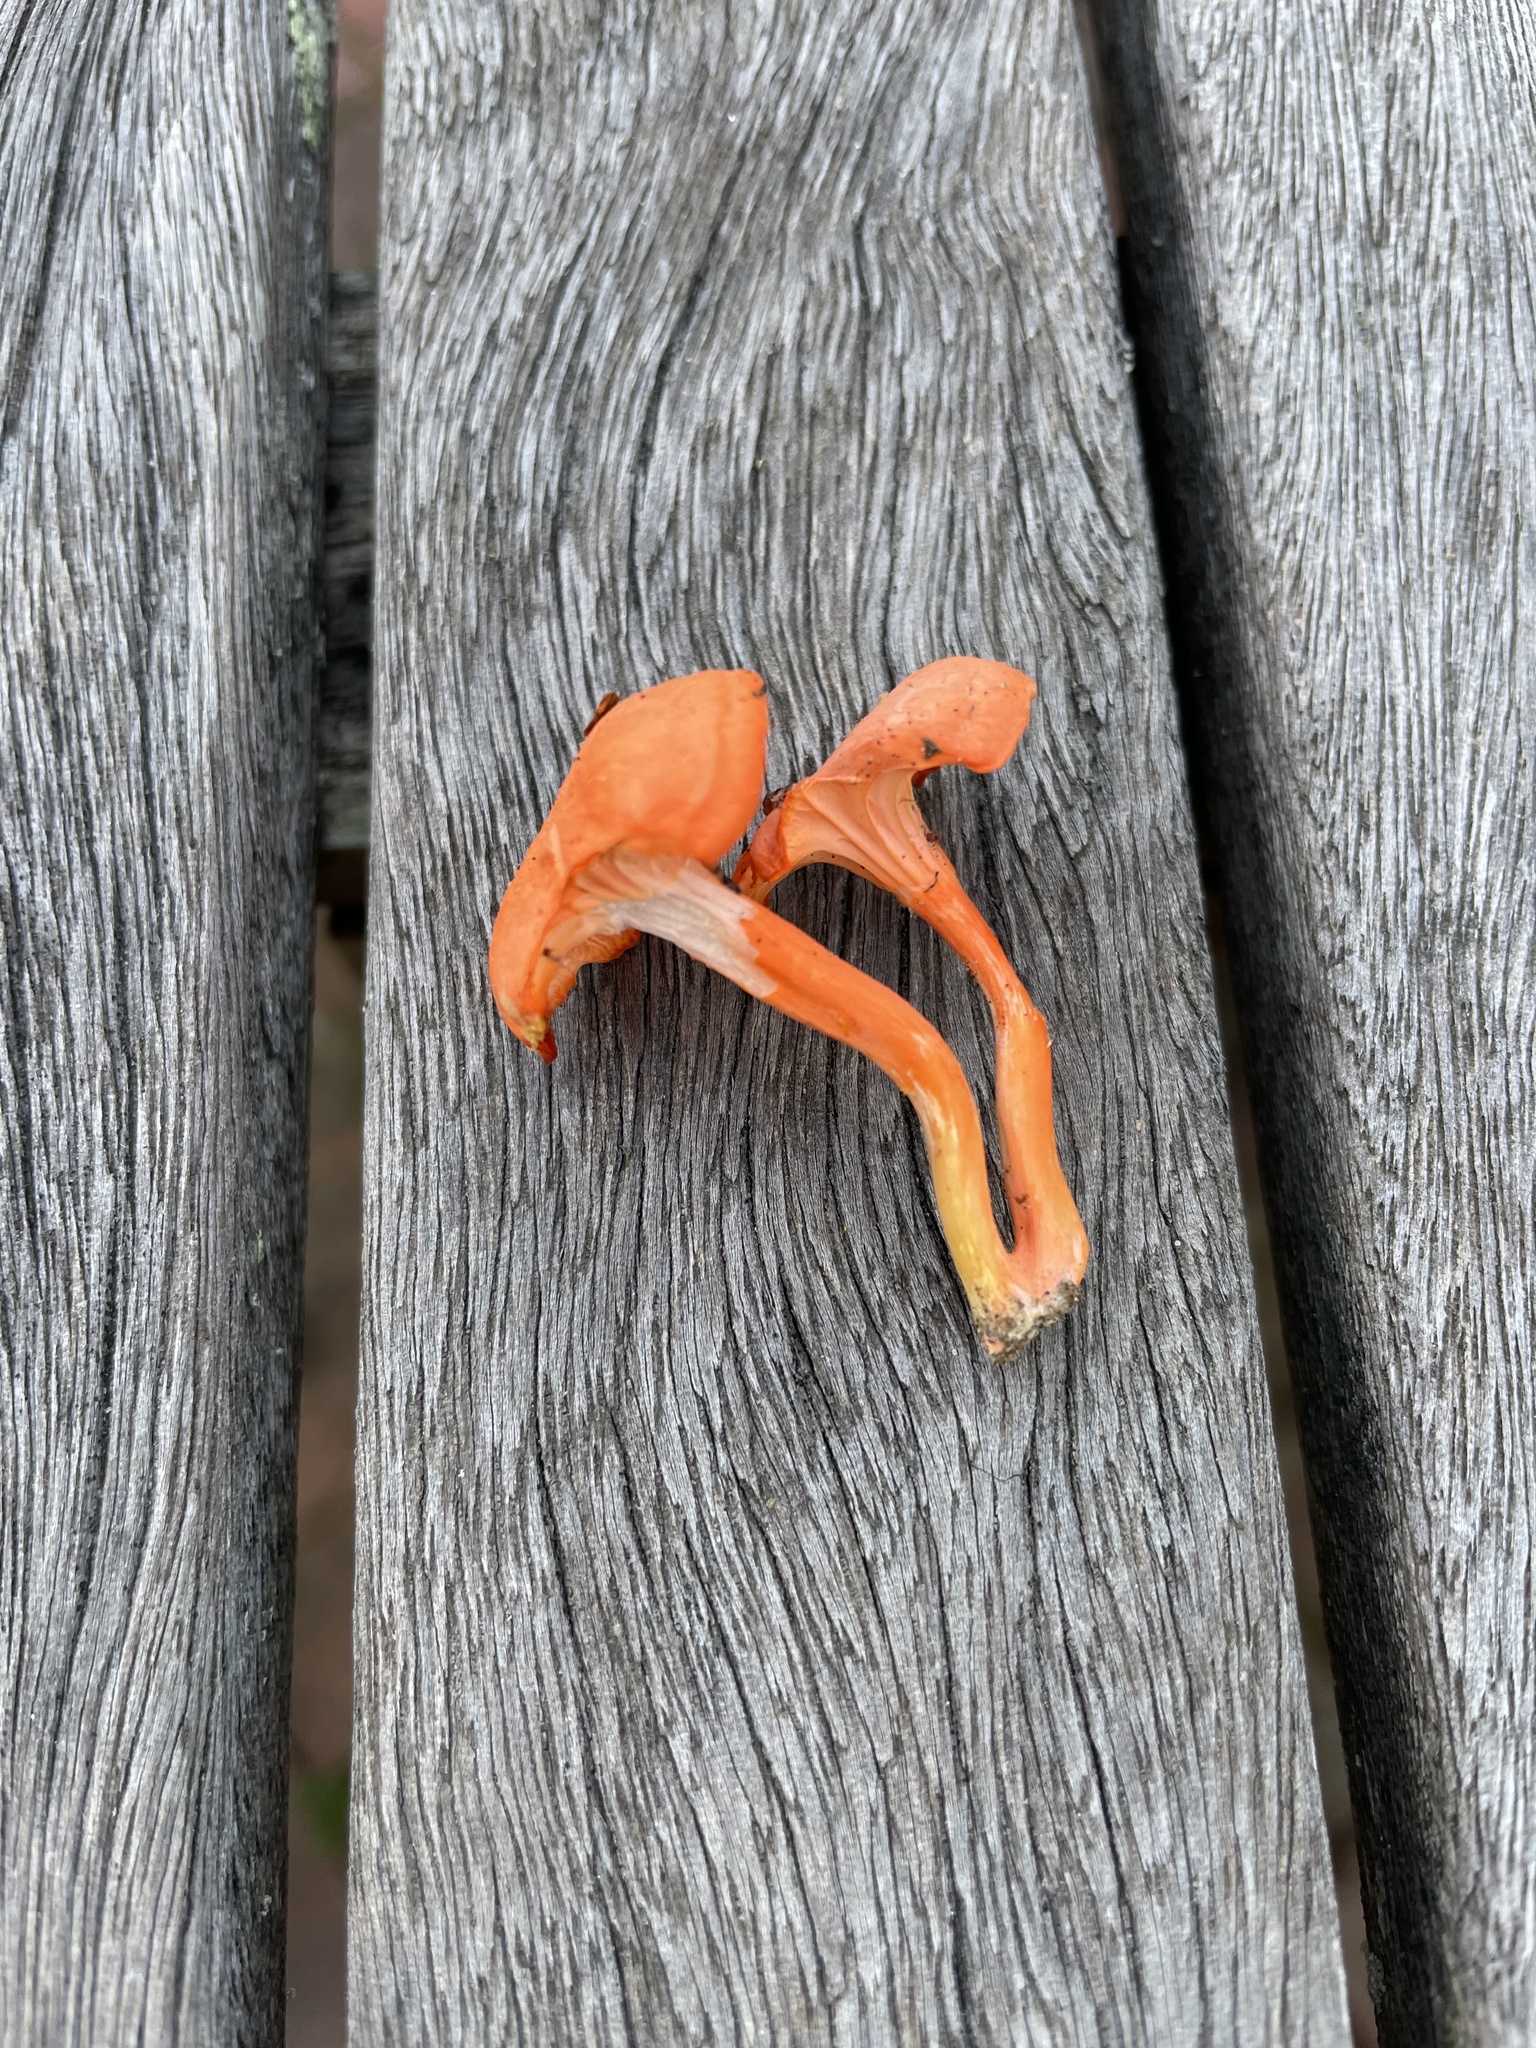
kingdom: Fungi
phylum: Basidiomycota
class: Agaricomycetes
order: Cantharellales
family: Hydnaceae
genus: Cantharellus
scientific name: Cantharellus cinnabarinus
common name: Cinnabar chanterelle
